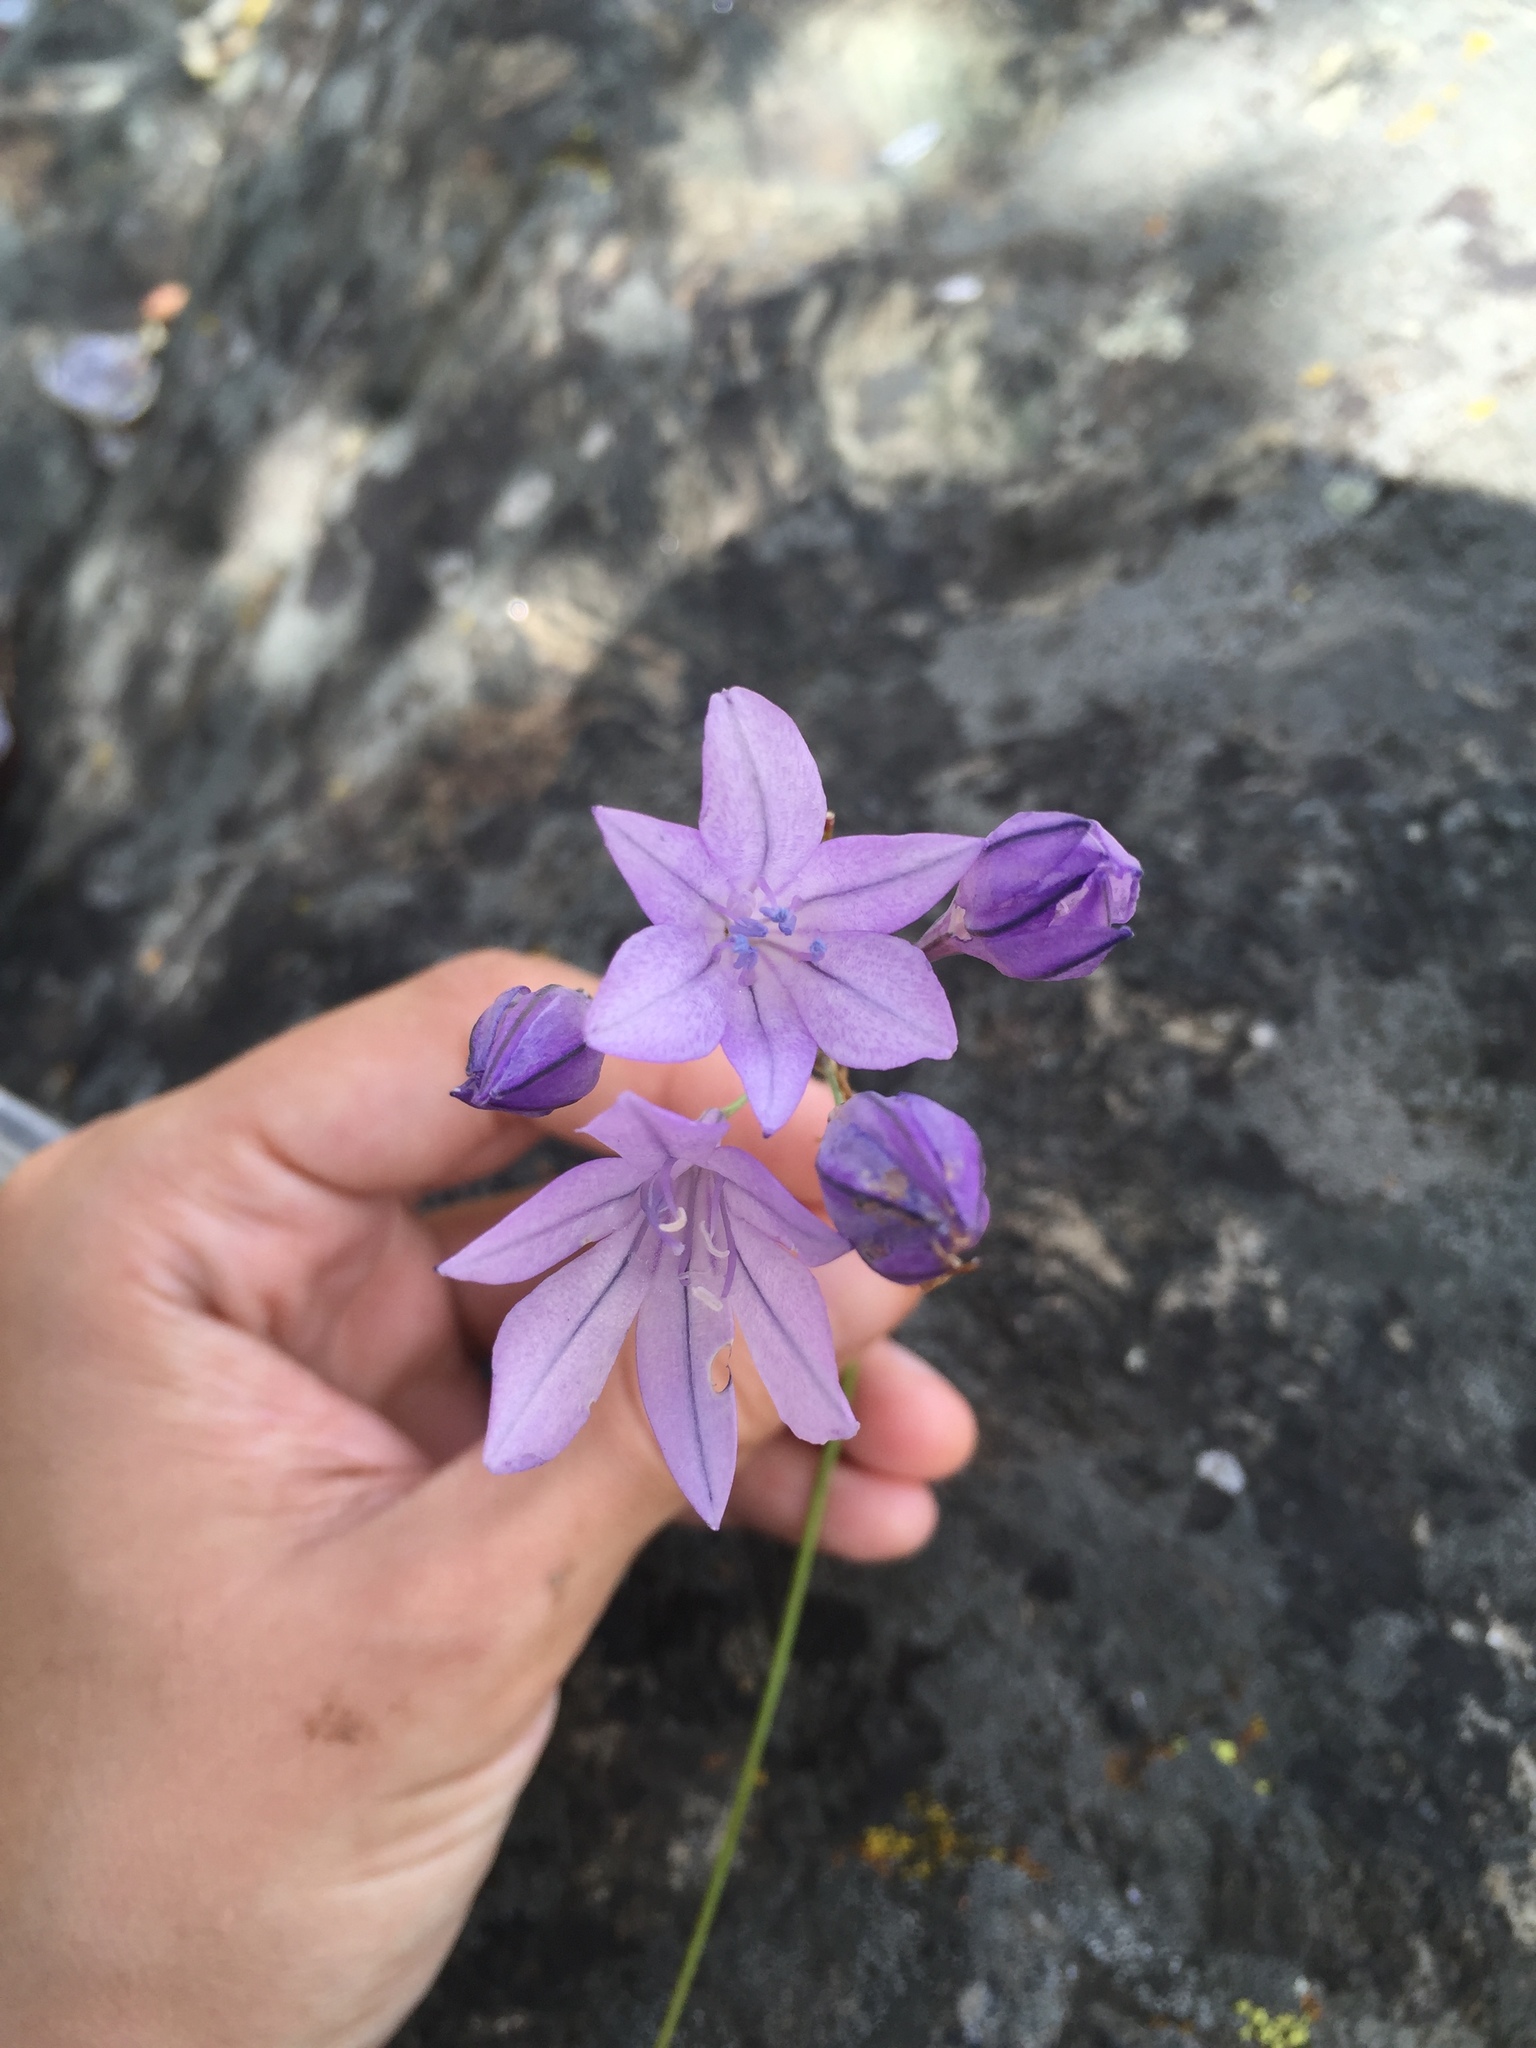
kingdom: Plantae
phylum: Tracheophyta
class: Liliopsida
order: Asparagales
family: Asparagaceae
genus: Triteleia
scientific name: Triteleia laxa
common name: Triplet-lily
